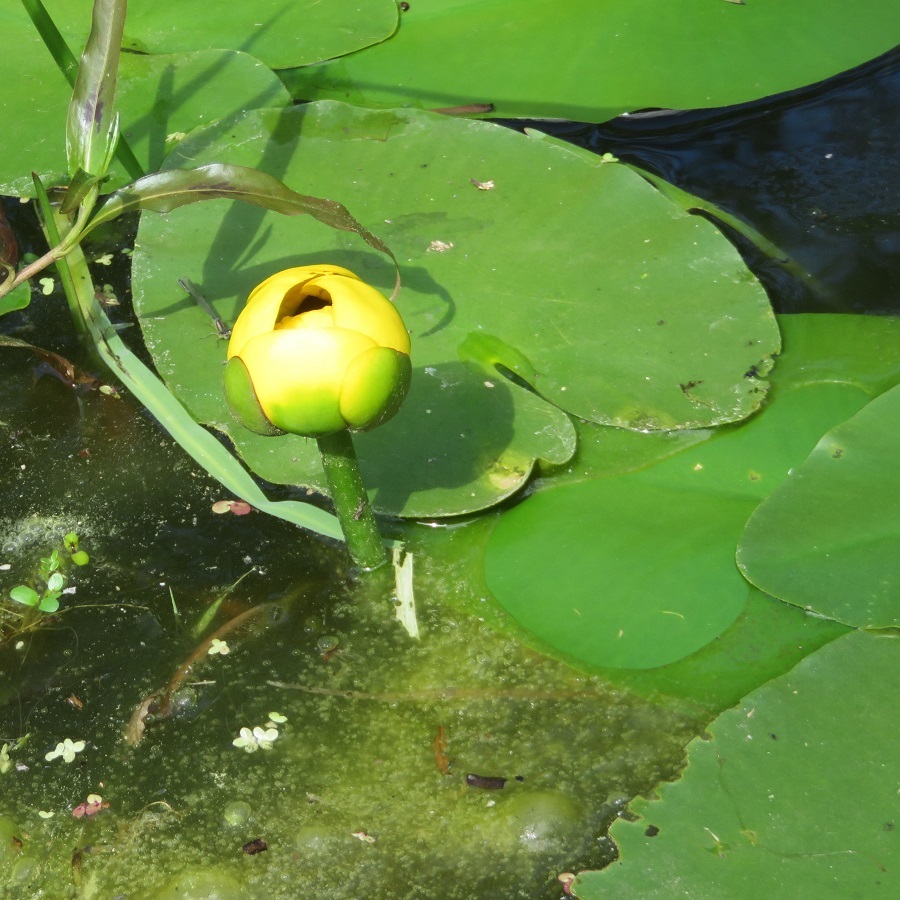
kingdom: Plantae
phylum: Tracheophyta
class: Magnoliopsida
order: Nymphaeales
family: Nymphaeaceae
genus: Nuphar
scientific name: Nuphar variegata
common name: Beaver-root
